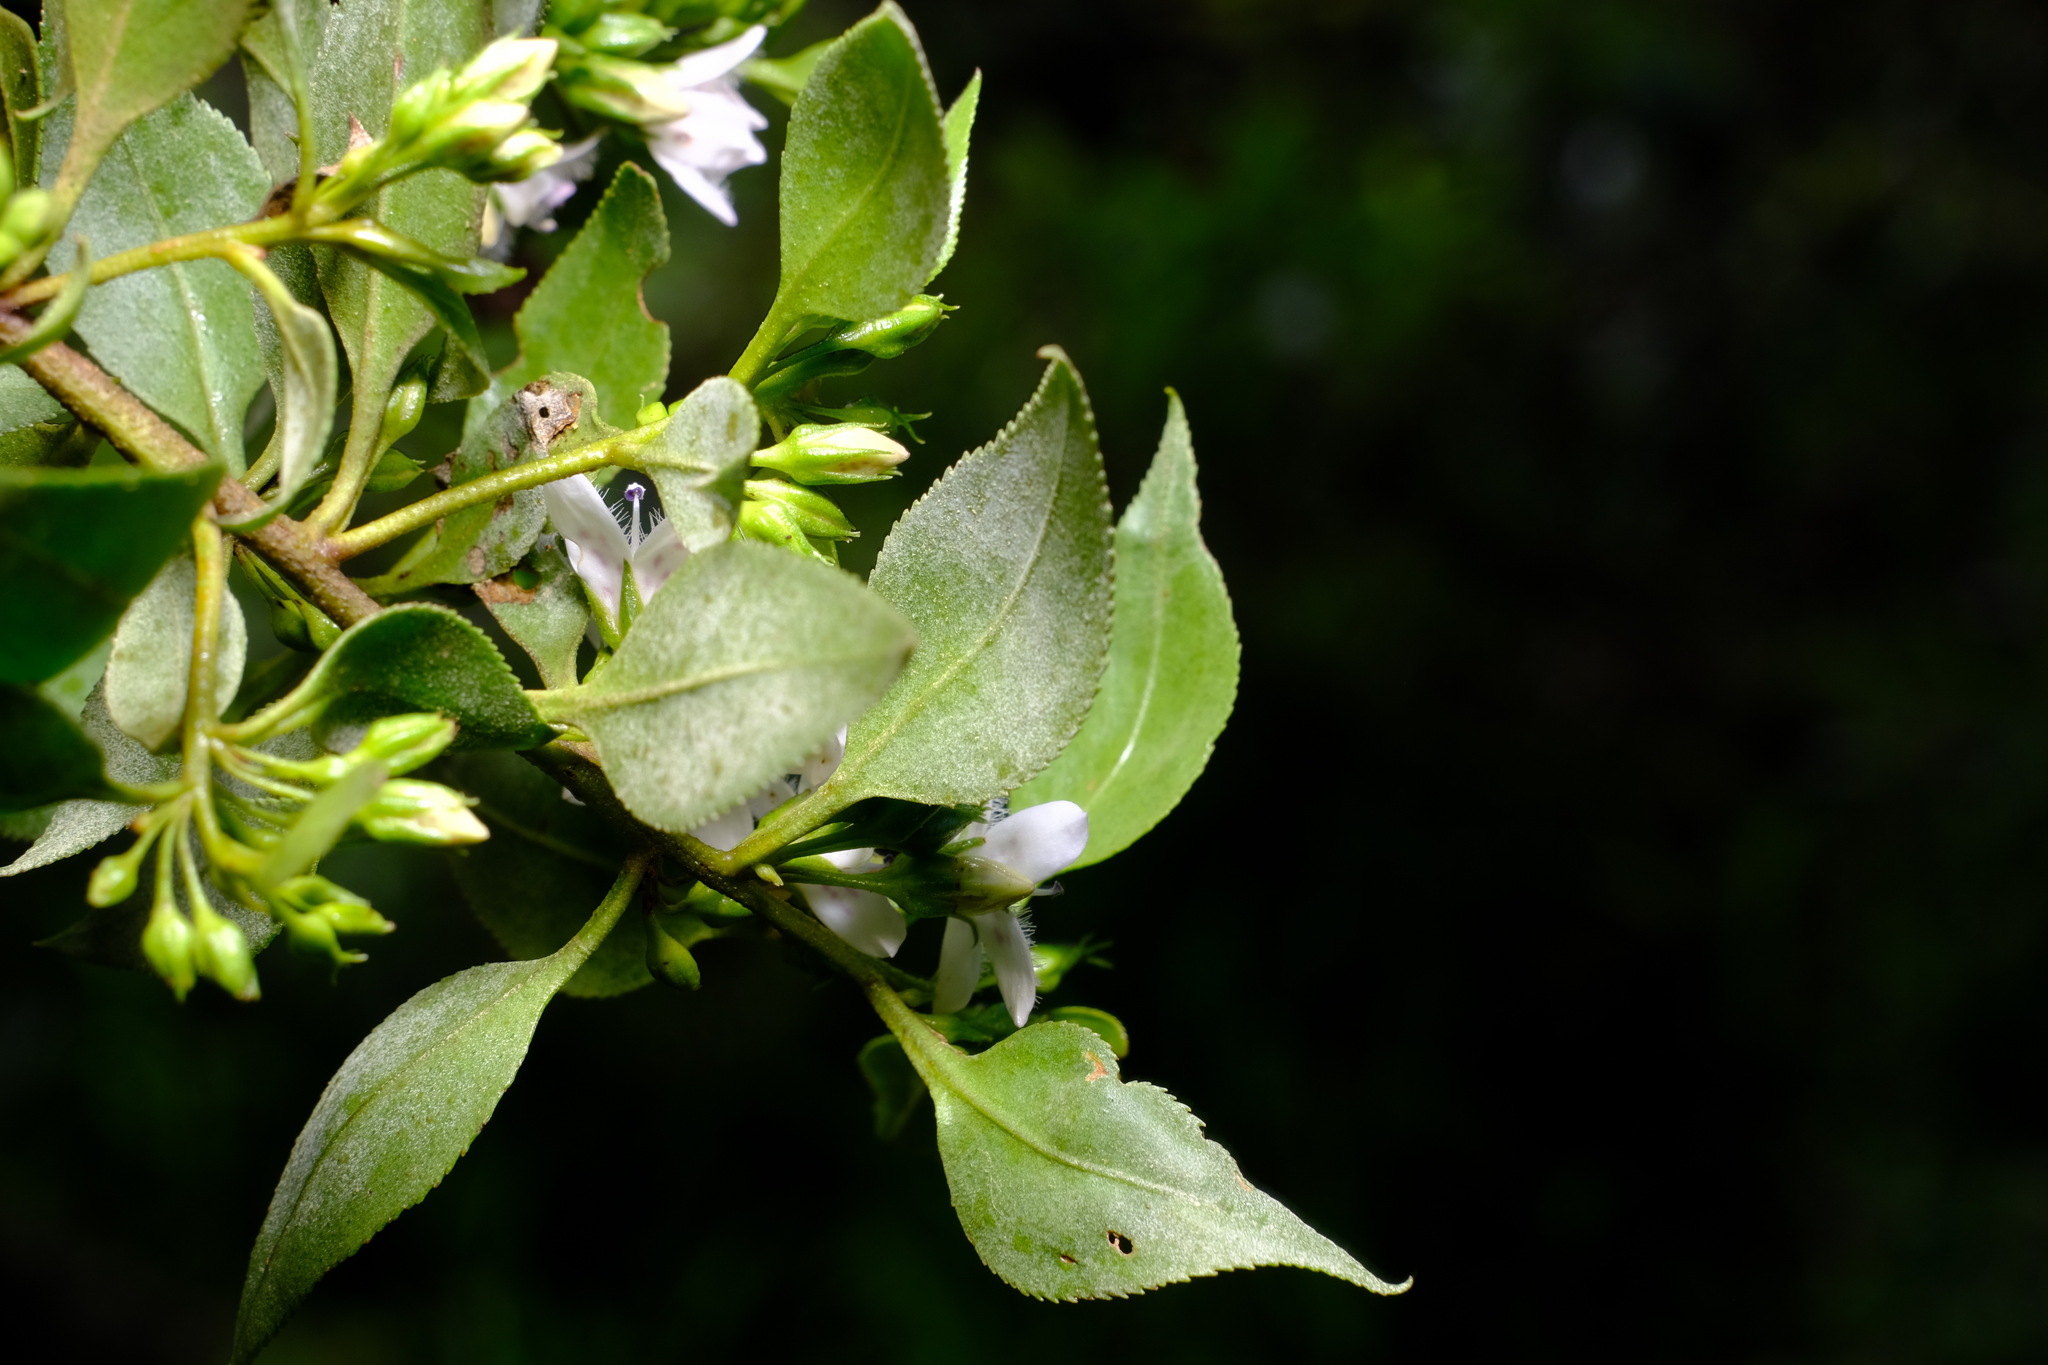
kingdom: Plantae
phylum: Tracheophyta
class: Magnoliopsida
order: Lamiales
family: Scrophulariaceae
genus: Myoporum
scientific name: Myoporum petiolatum
